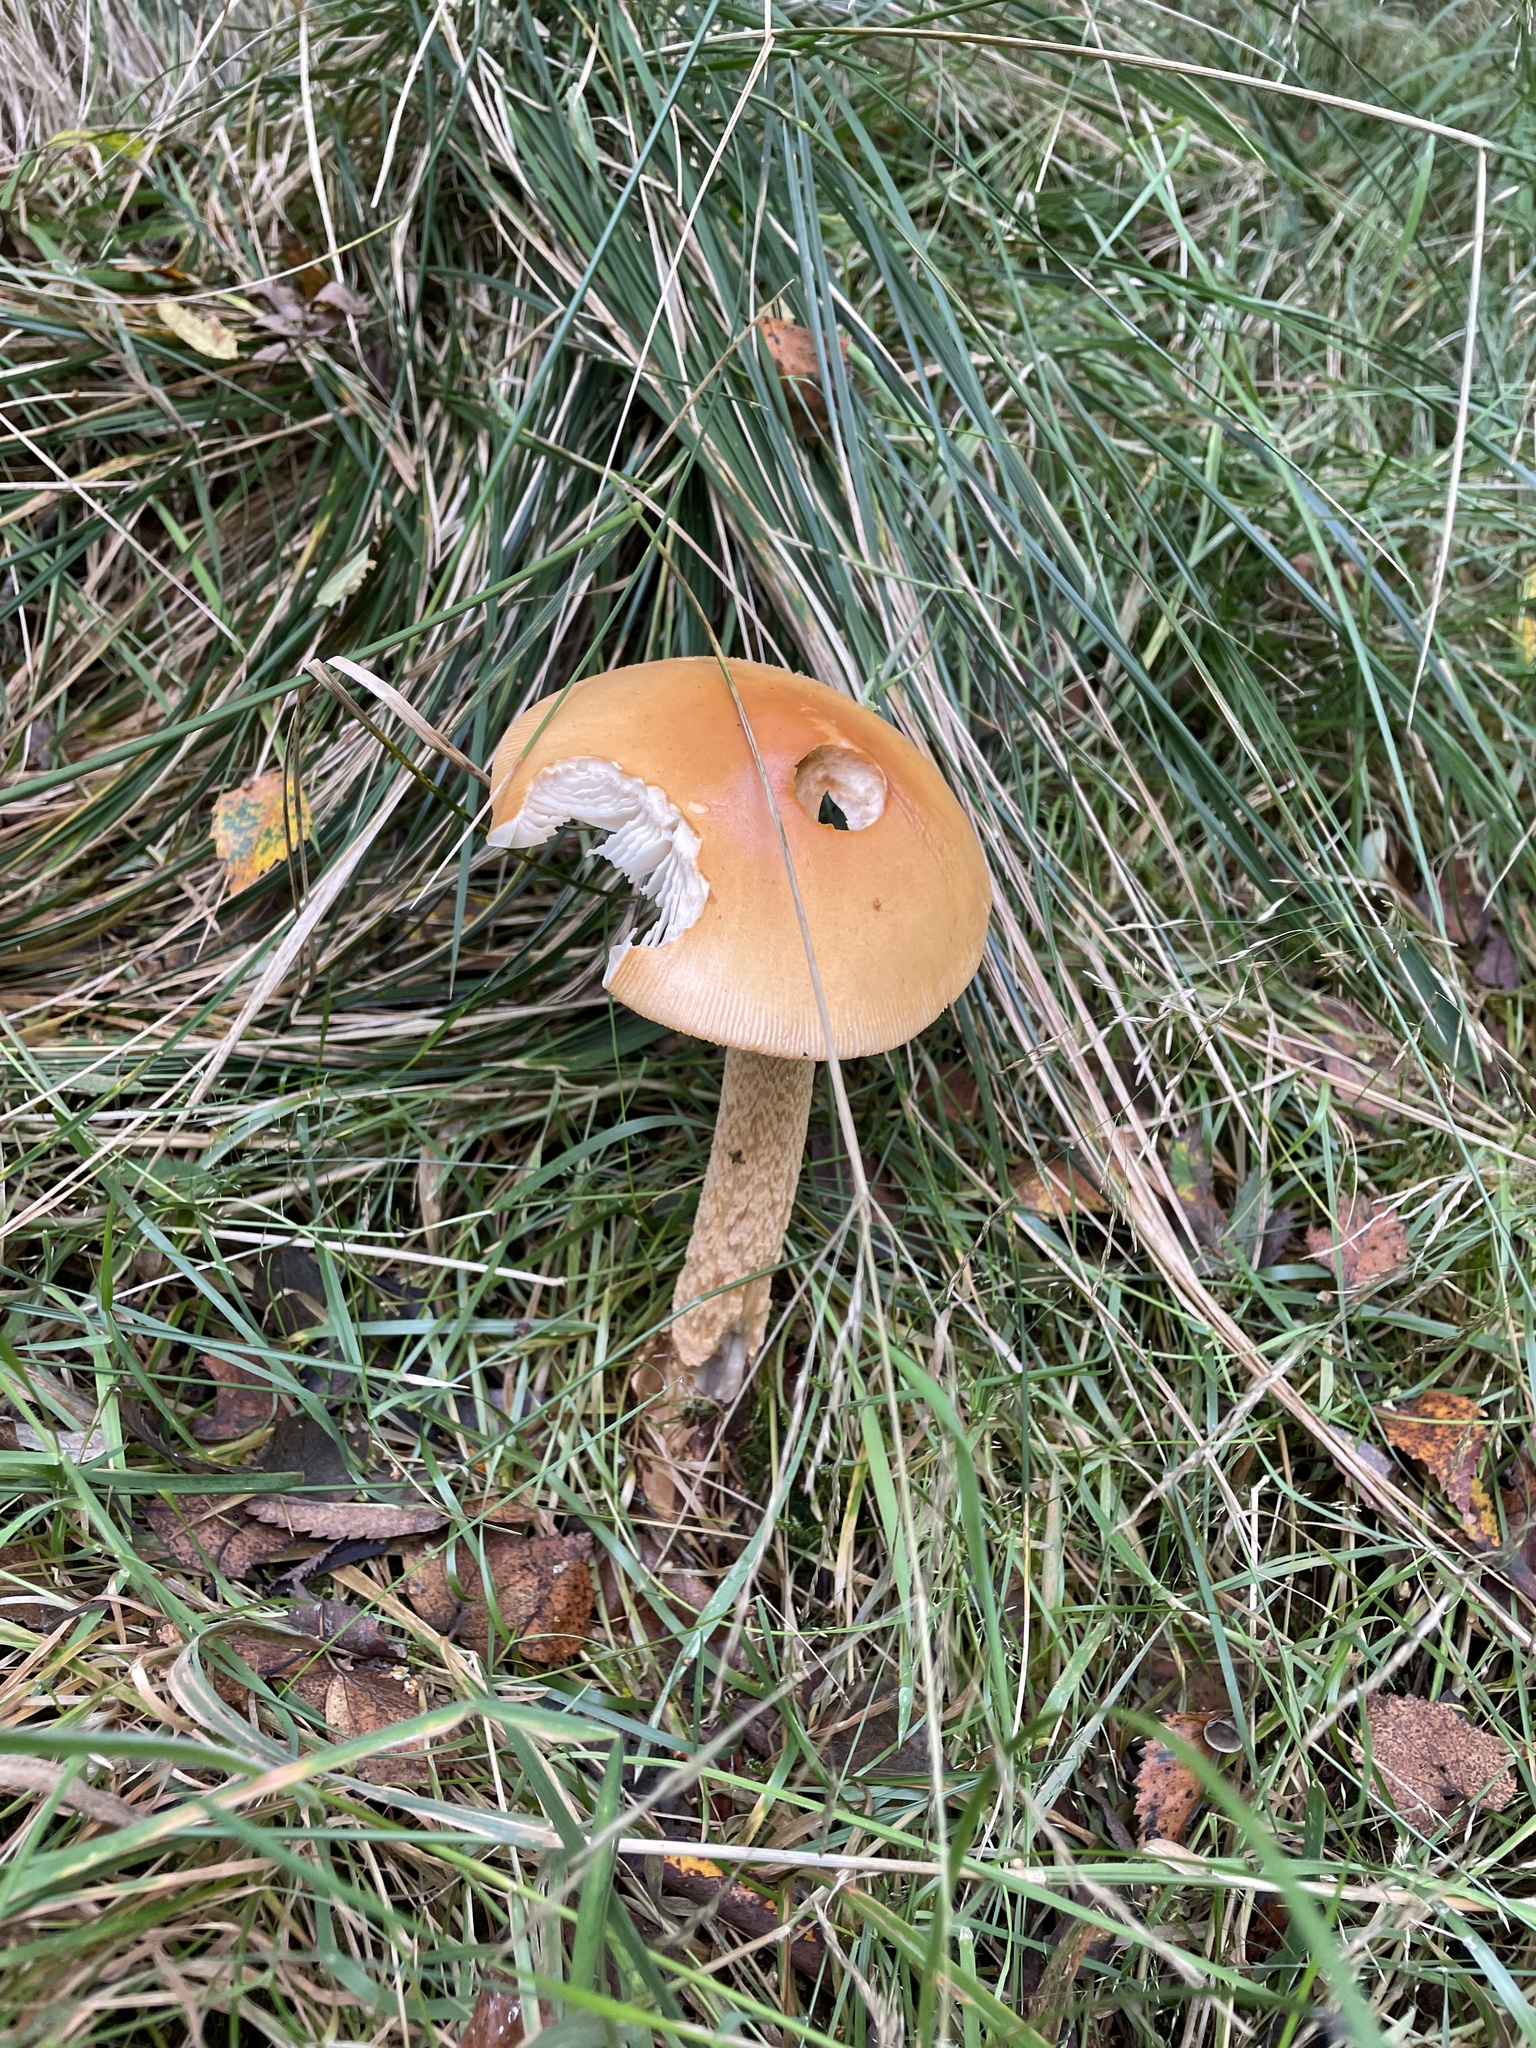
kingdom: Fungi
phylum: Basidiomycota
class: Agaricomycetes
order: Agaricales
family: Amanitaceae
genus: Amanita
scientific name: Amanita crocea
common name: Orange grisette
